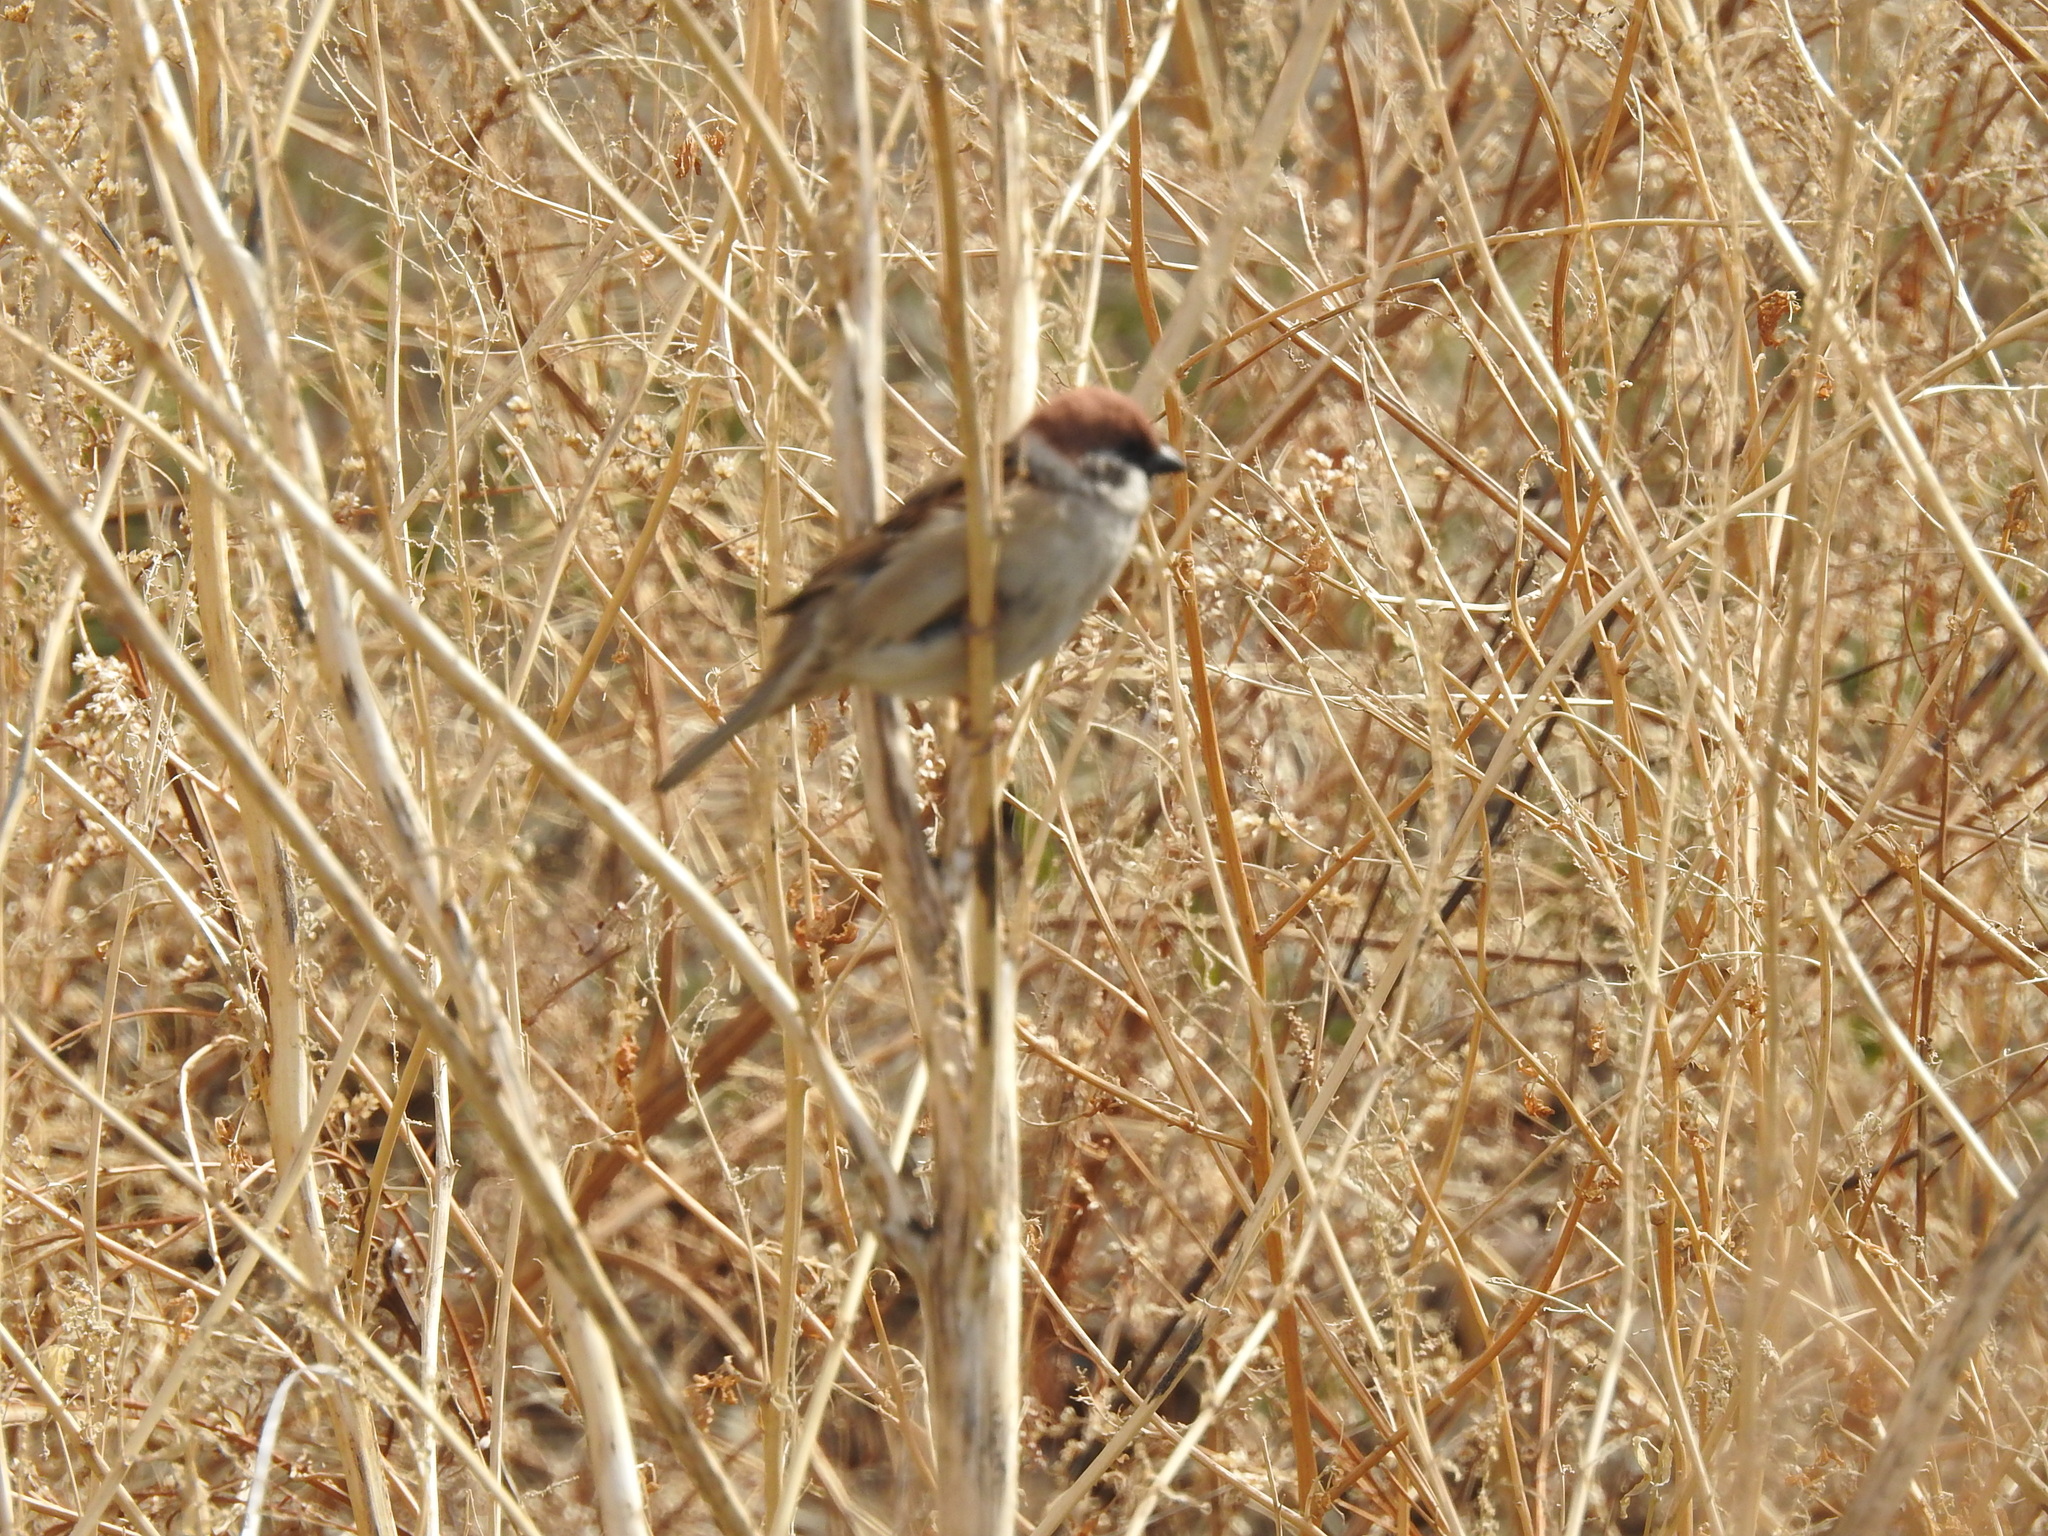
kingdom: Animalia
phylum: Chordata
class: Aves
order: Passeriformes
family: Passeridae
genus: Passer
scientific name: Passer montanus
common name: Eurasian tree sparrow
